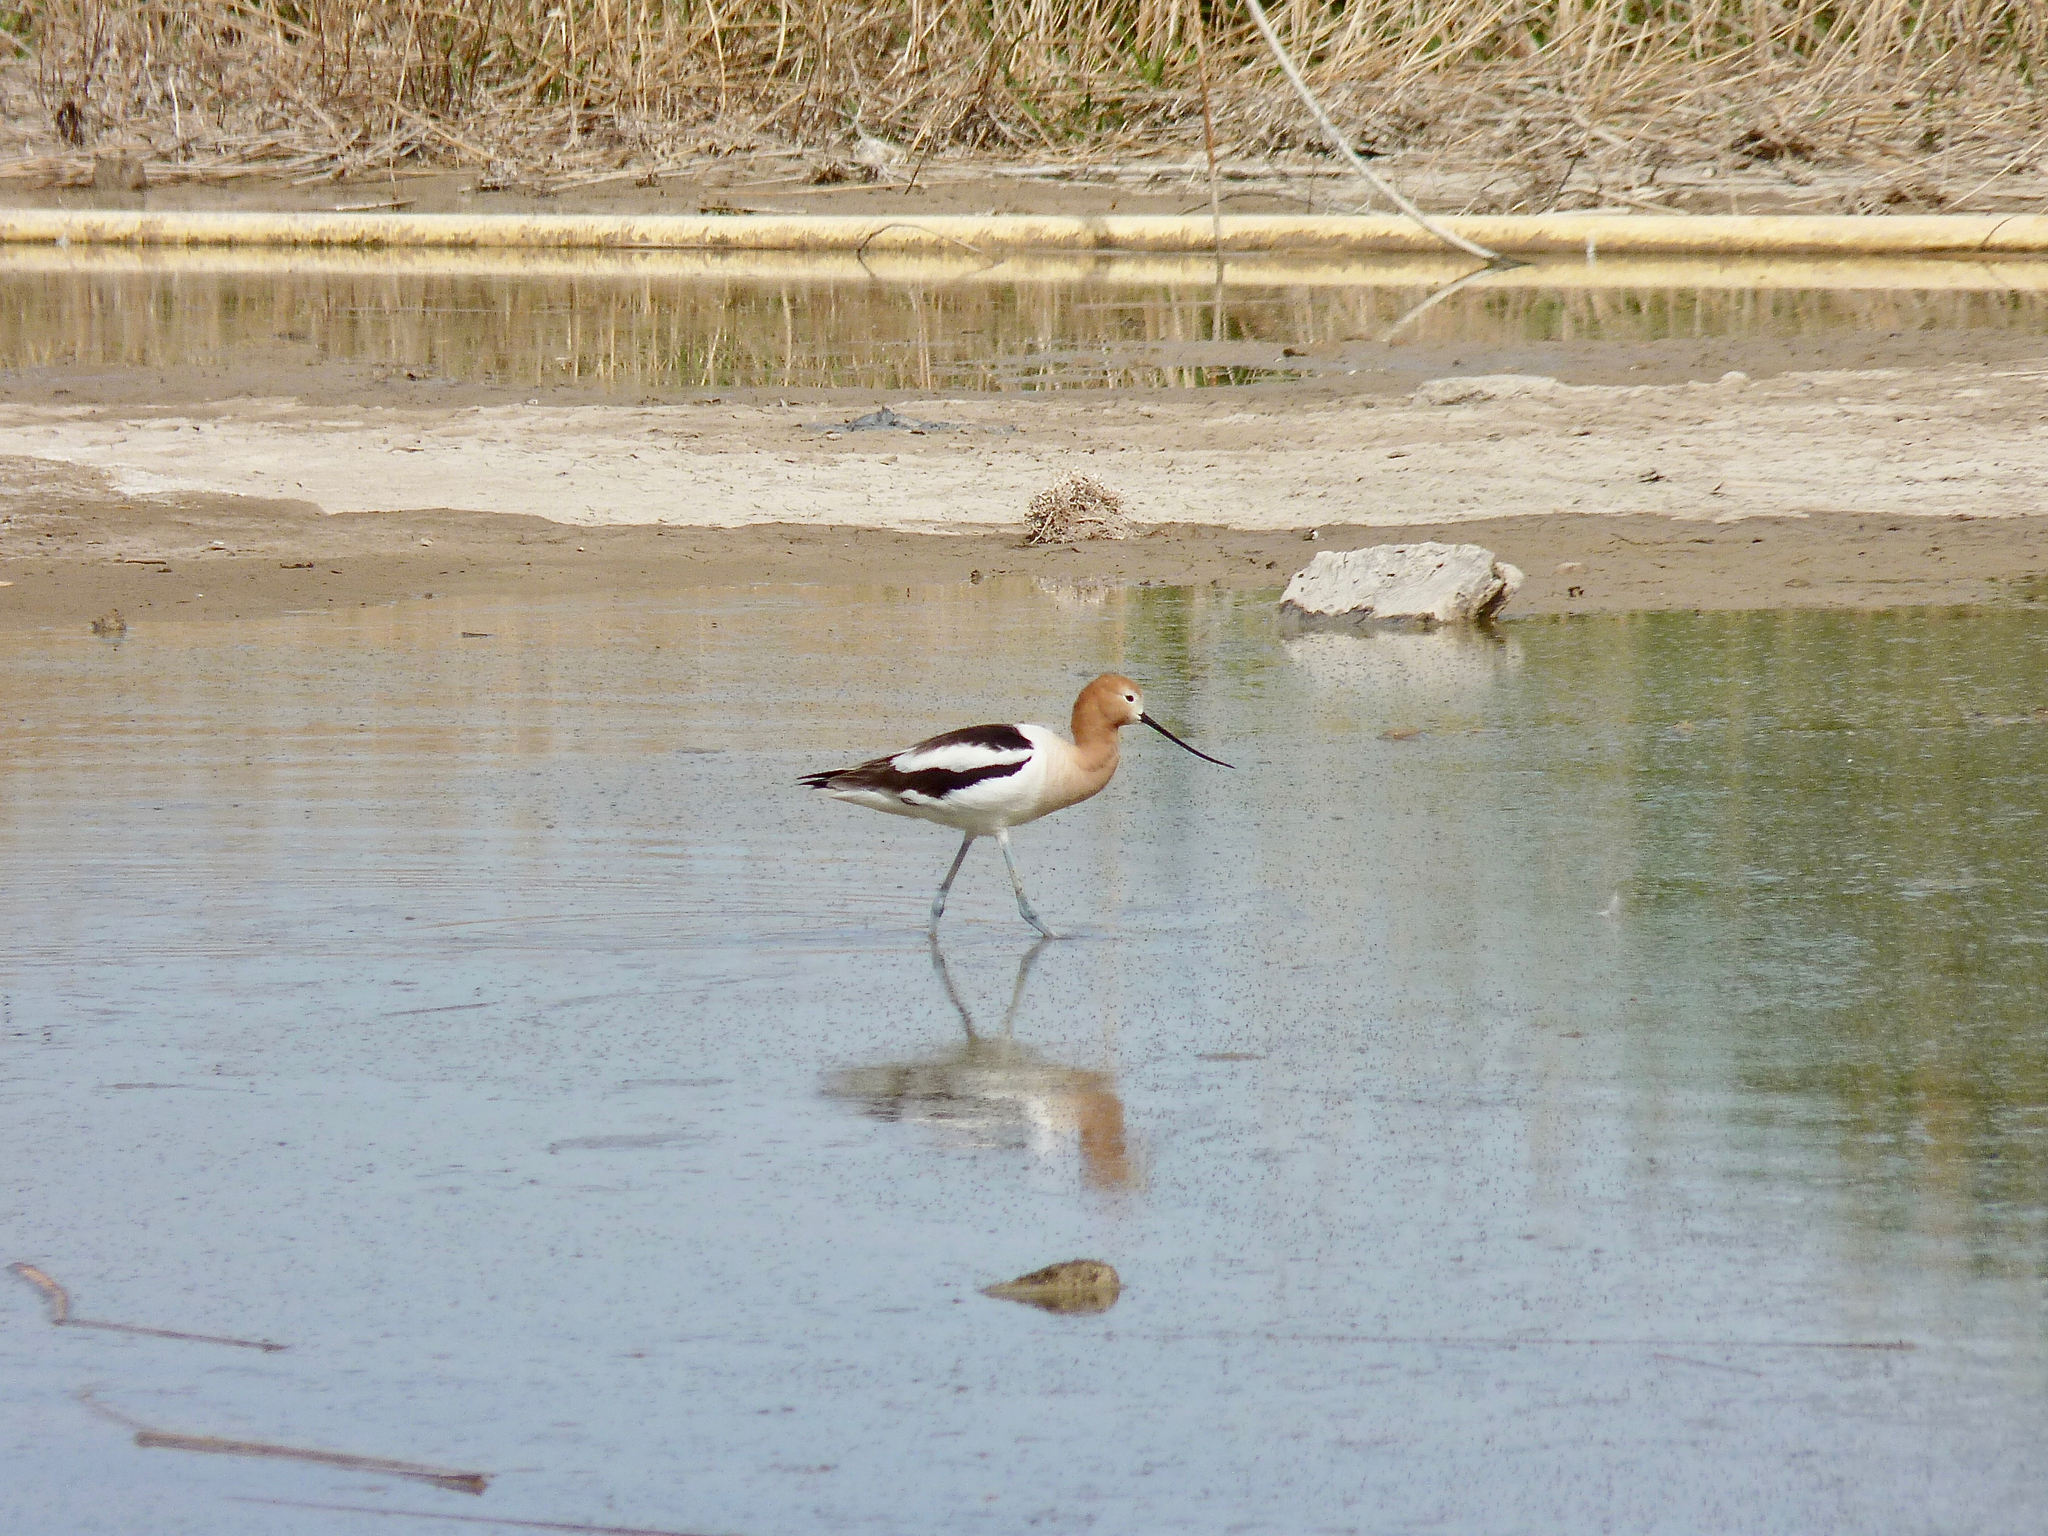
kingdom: Animalia
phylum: Chordata
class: Aves
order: Charadriiformes
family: Recurvirostridae
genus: Recurvirostra
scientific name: Recurvirostra americana
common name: American avocet
